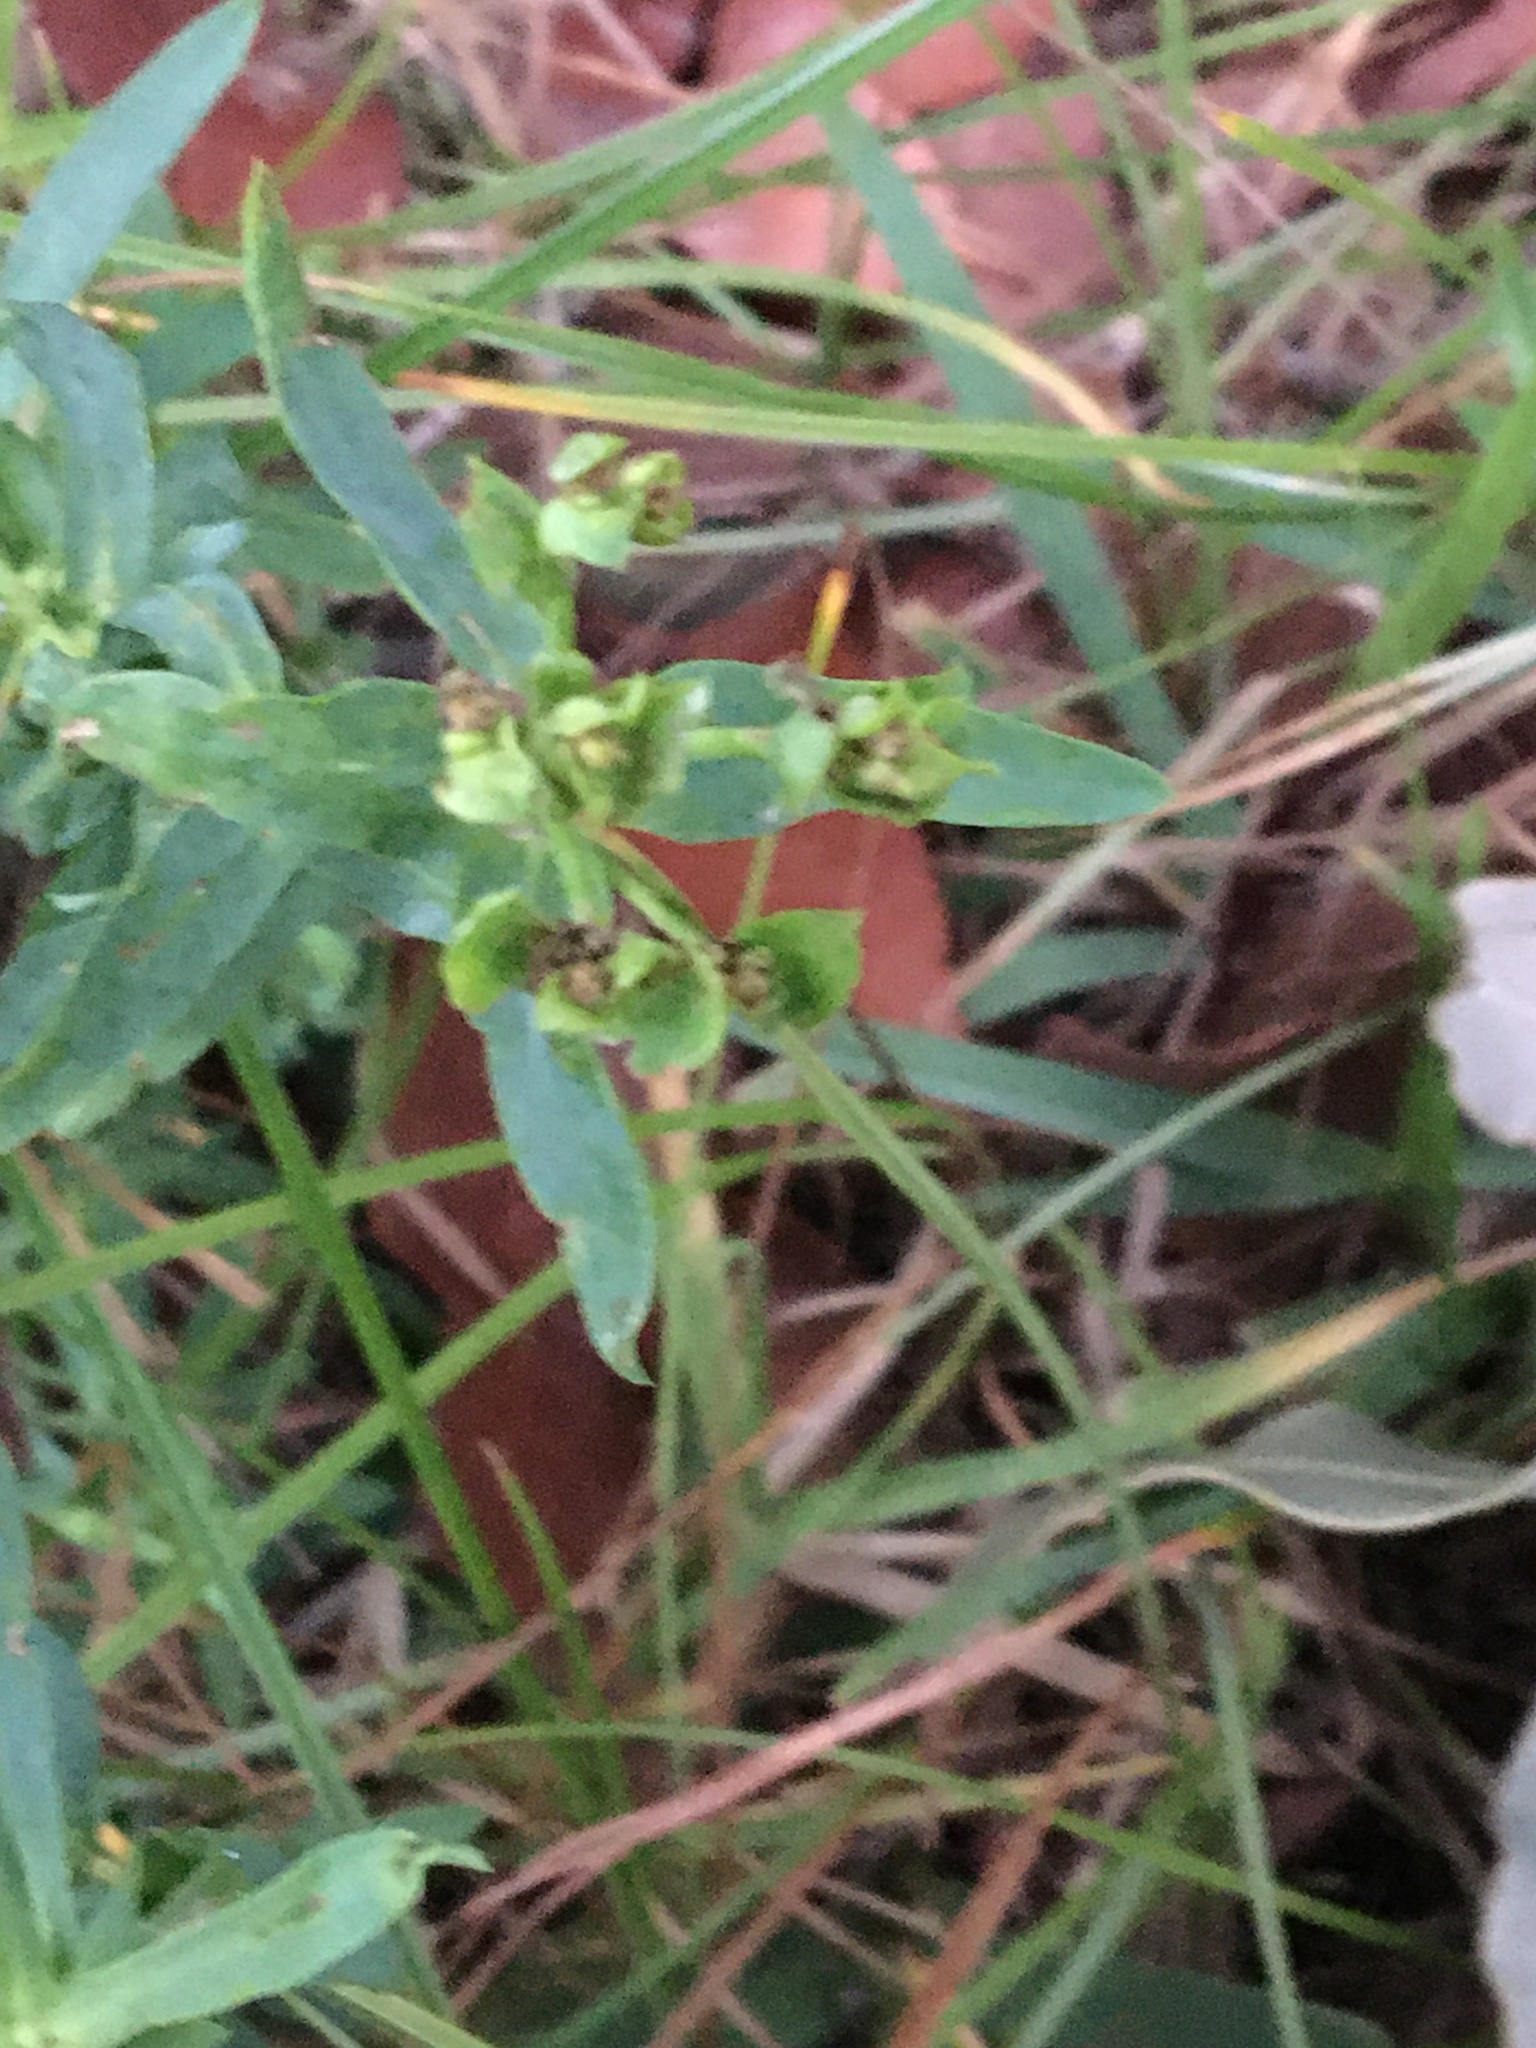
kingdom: Plantae
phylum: Tracheophyta
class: Magnoliopsida
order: Malpighiales
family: Euphorbiaceae
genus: Euphorbia
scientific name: Euphorbia terracina
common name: Geraldton carnation weed
